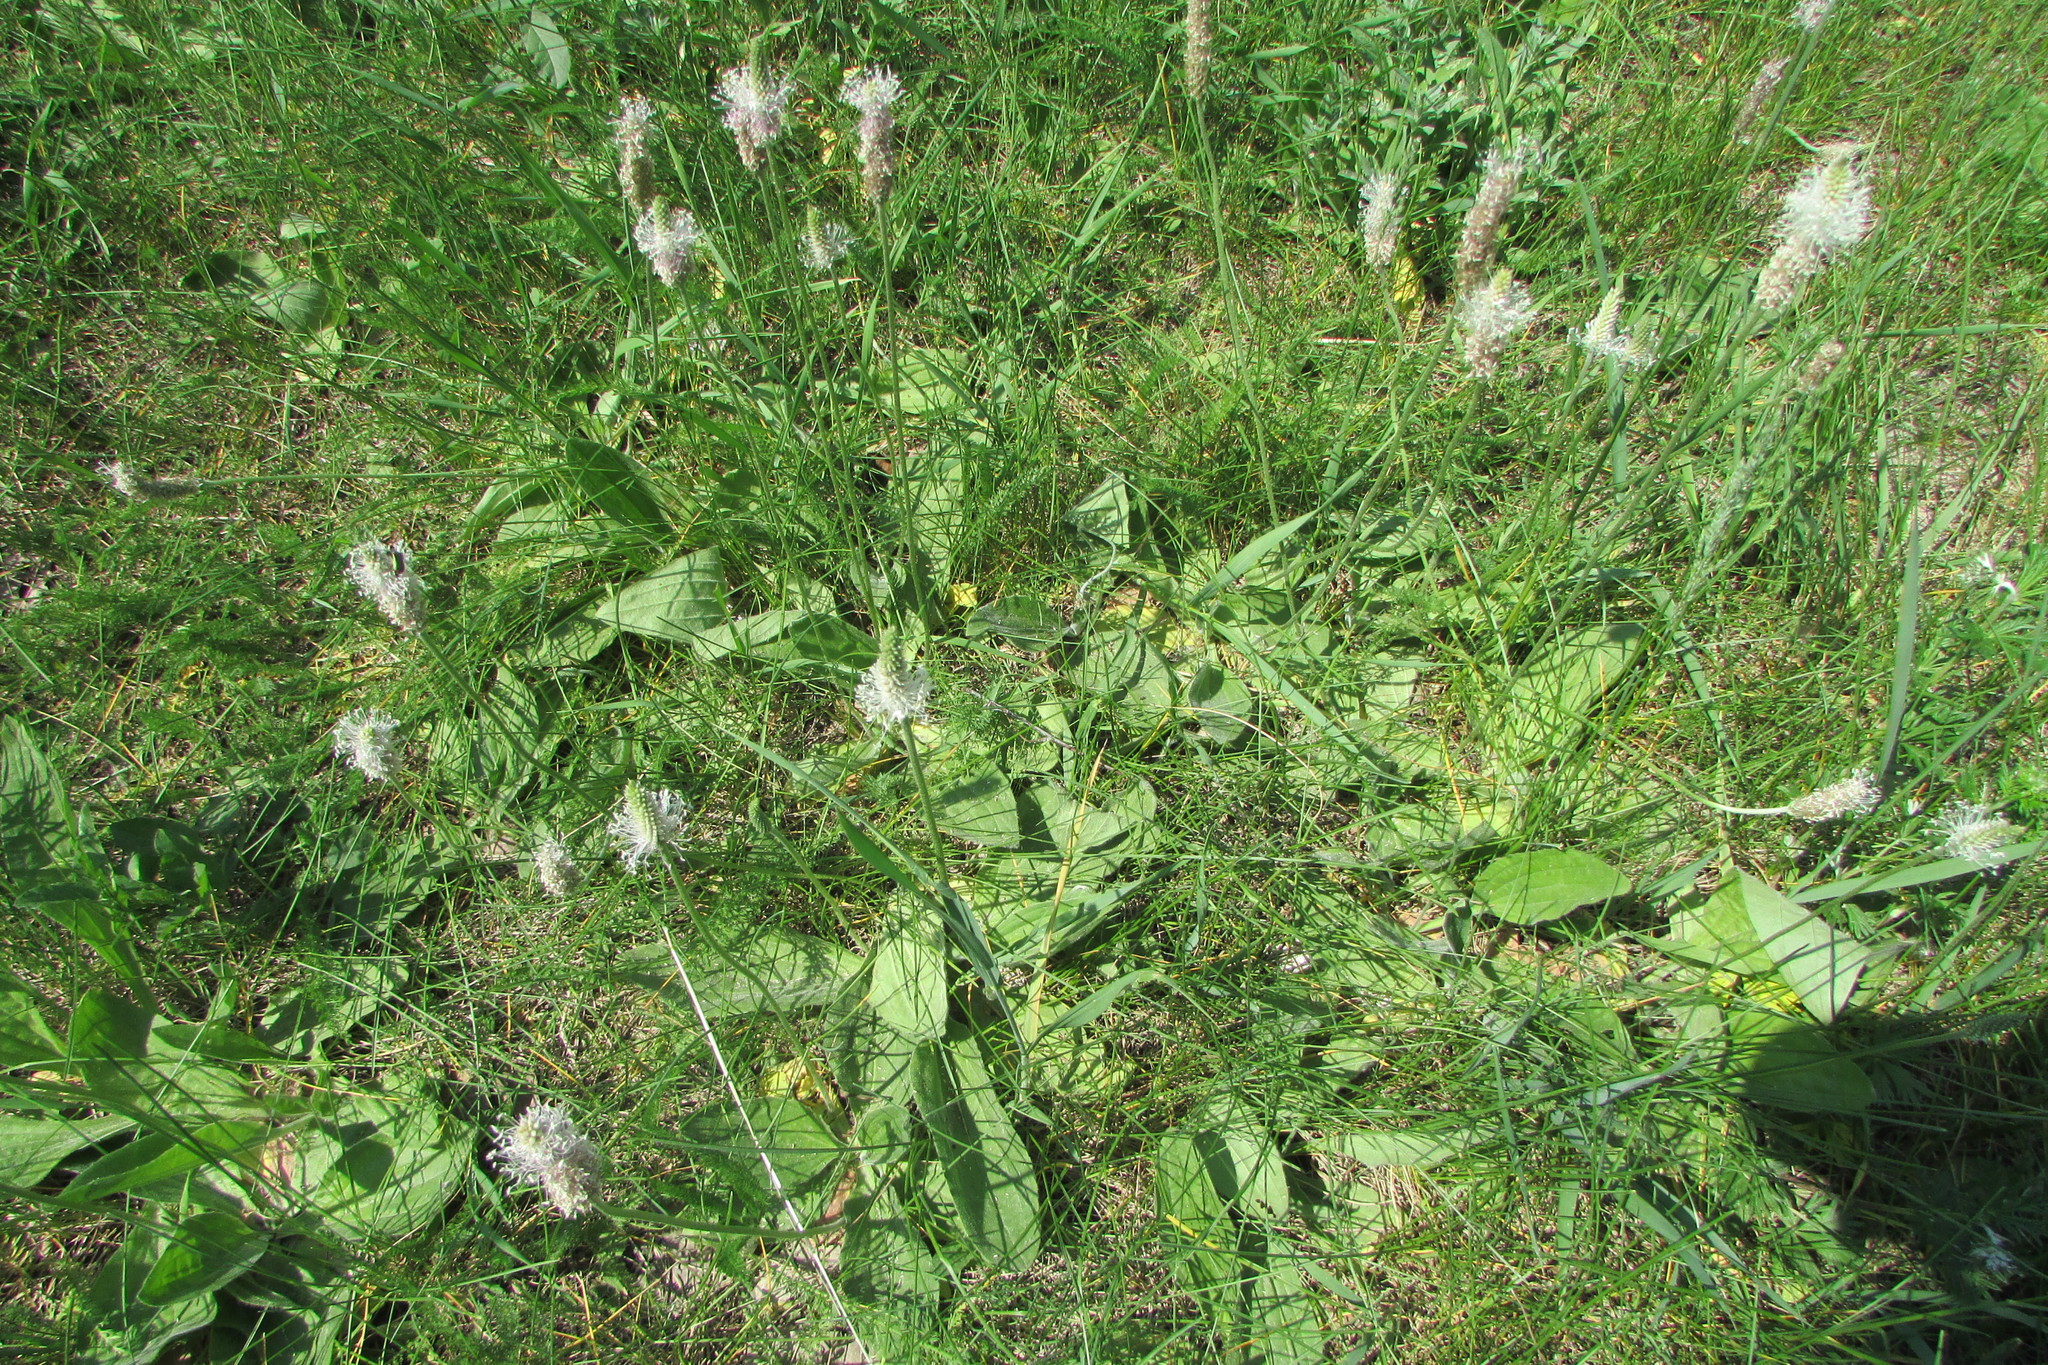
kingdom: Plantae
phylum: Tracheophyta
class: Magnoliopsida
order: Lamiales
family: Plantaginaceae
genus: Plantago
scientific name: Plantago media
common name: Hoary plantain
